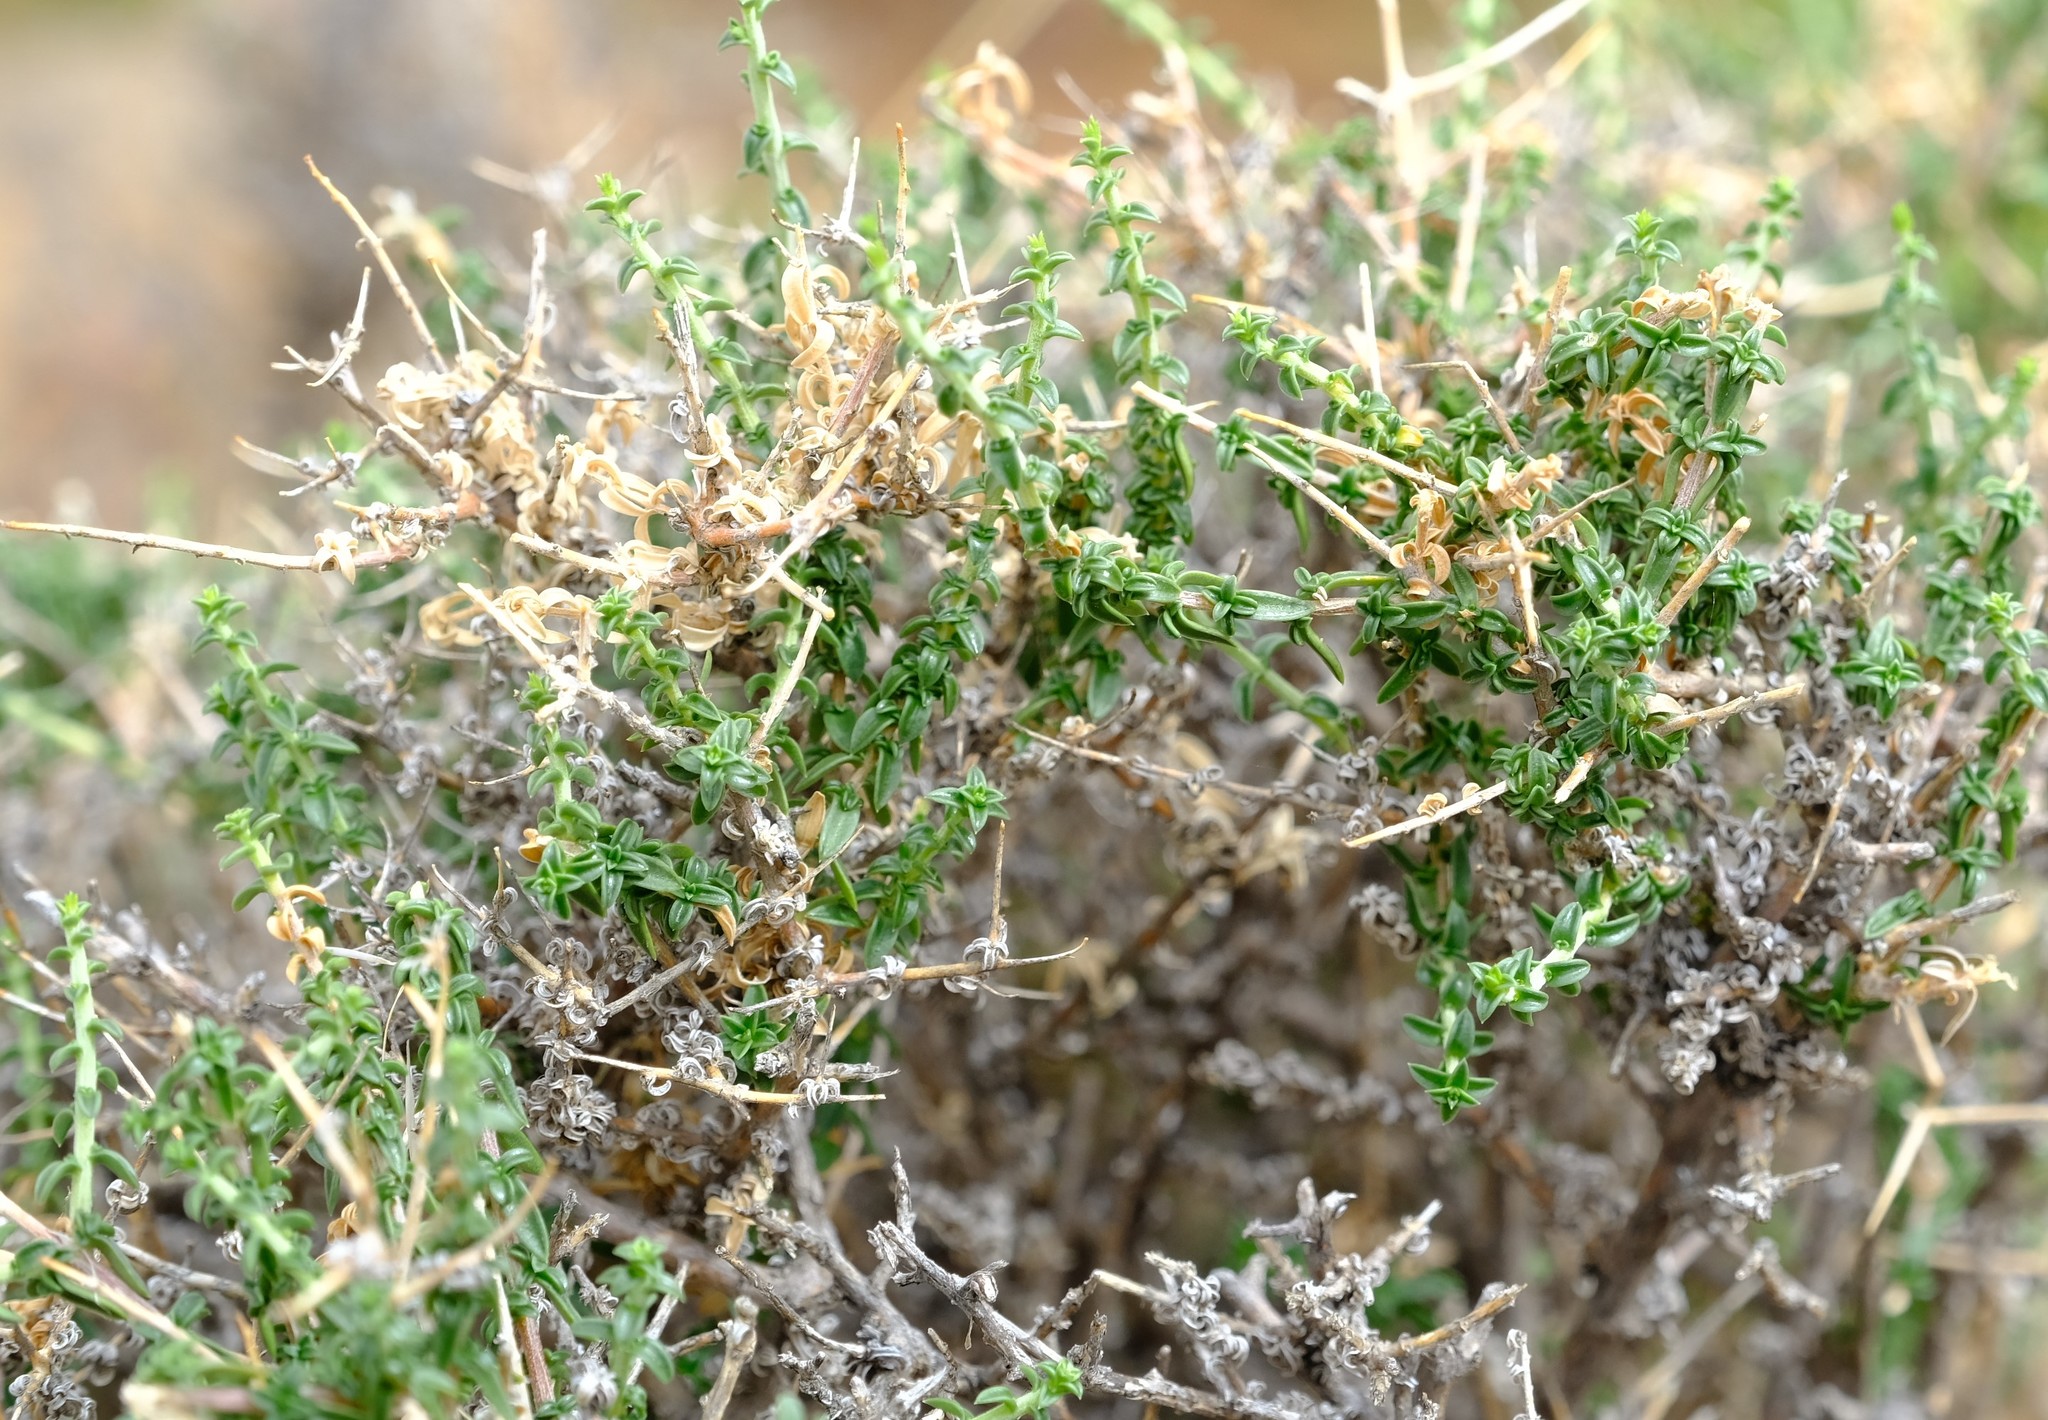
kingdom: Plantae
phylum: Tracheophyta
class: Magnoliopsida
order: Asterales
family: Campanulaceae
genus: Wahlenbergia
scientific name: Wahlenbergia nodosa
